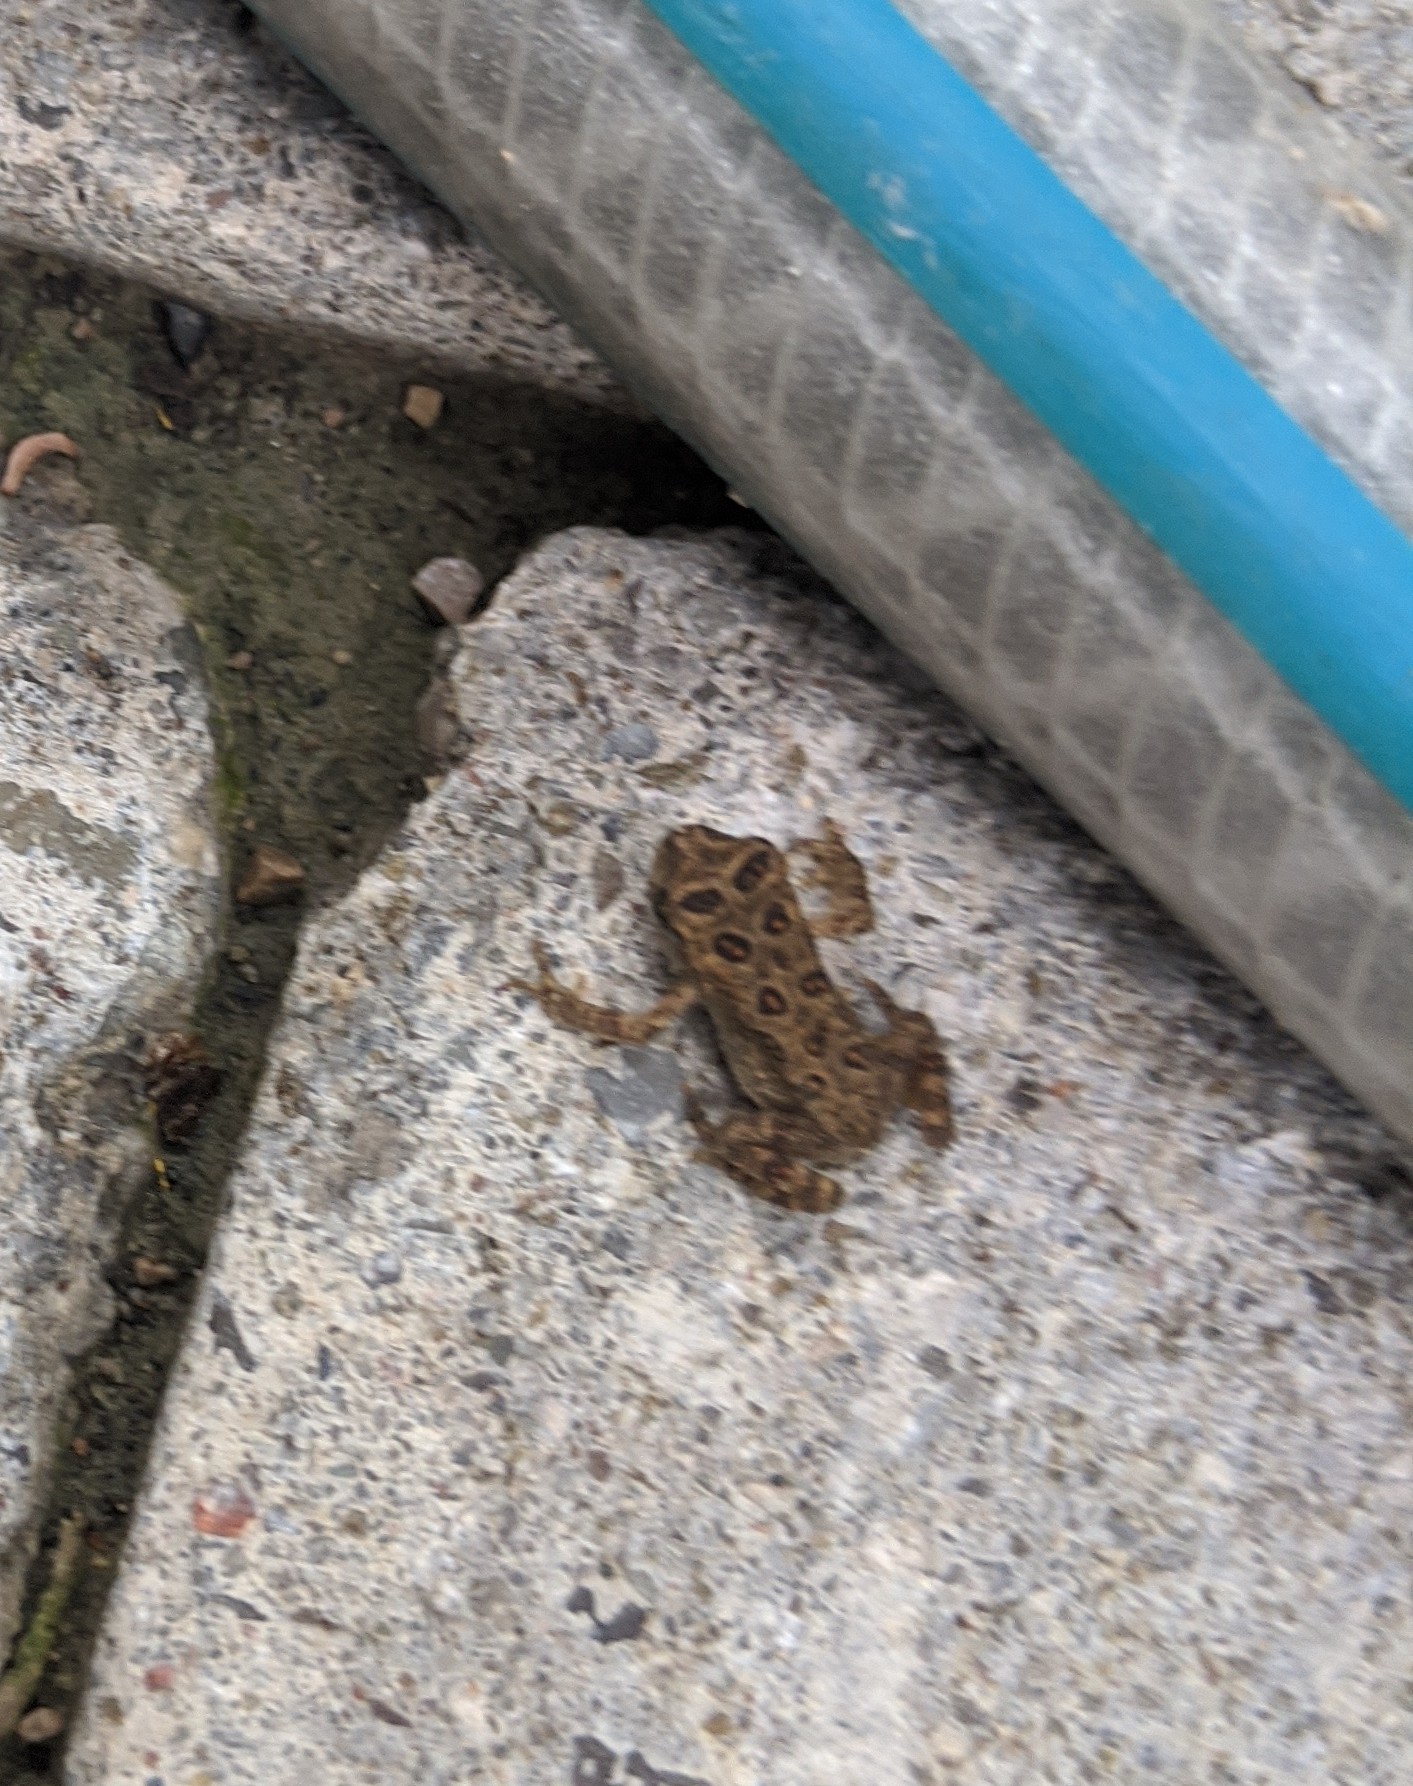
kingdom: Animalia
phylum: Chordata
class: Amphibia
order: Anura
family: Bufonidae
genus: Anaxyrus
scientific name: Anaxyrus americanus
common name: American toad
